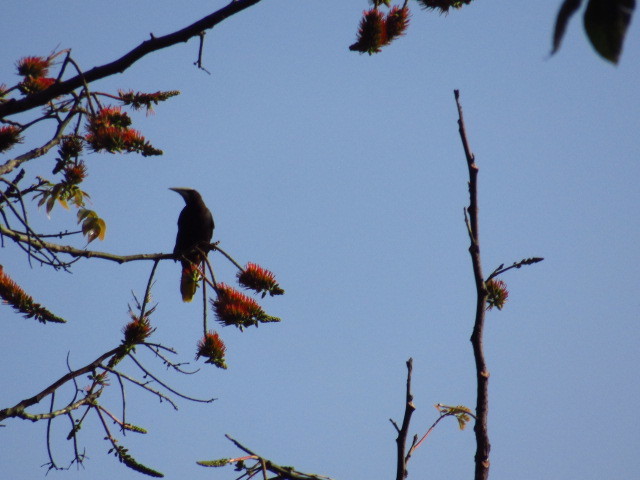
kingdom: Animalia
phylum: Chordata
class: Aves
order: Passeriformes
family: Icteridae
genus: Psarocolius
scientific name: Psarocolius wagleri
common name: Chestnut-headed oropendola
